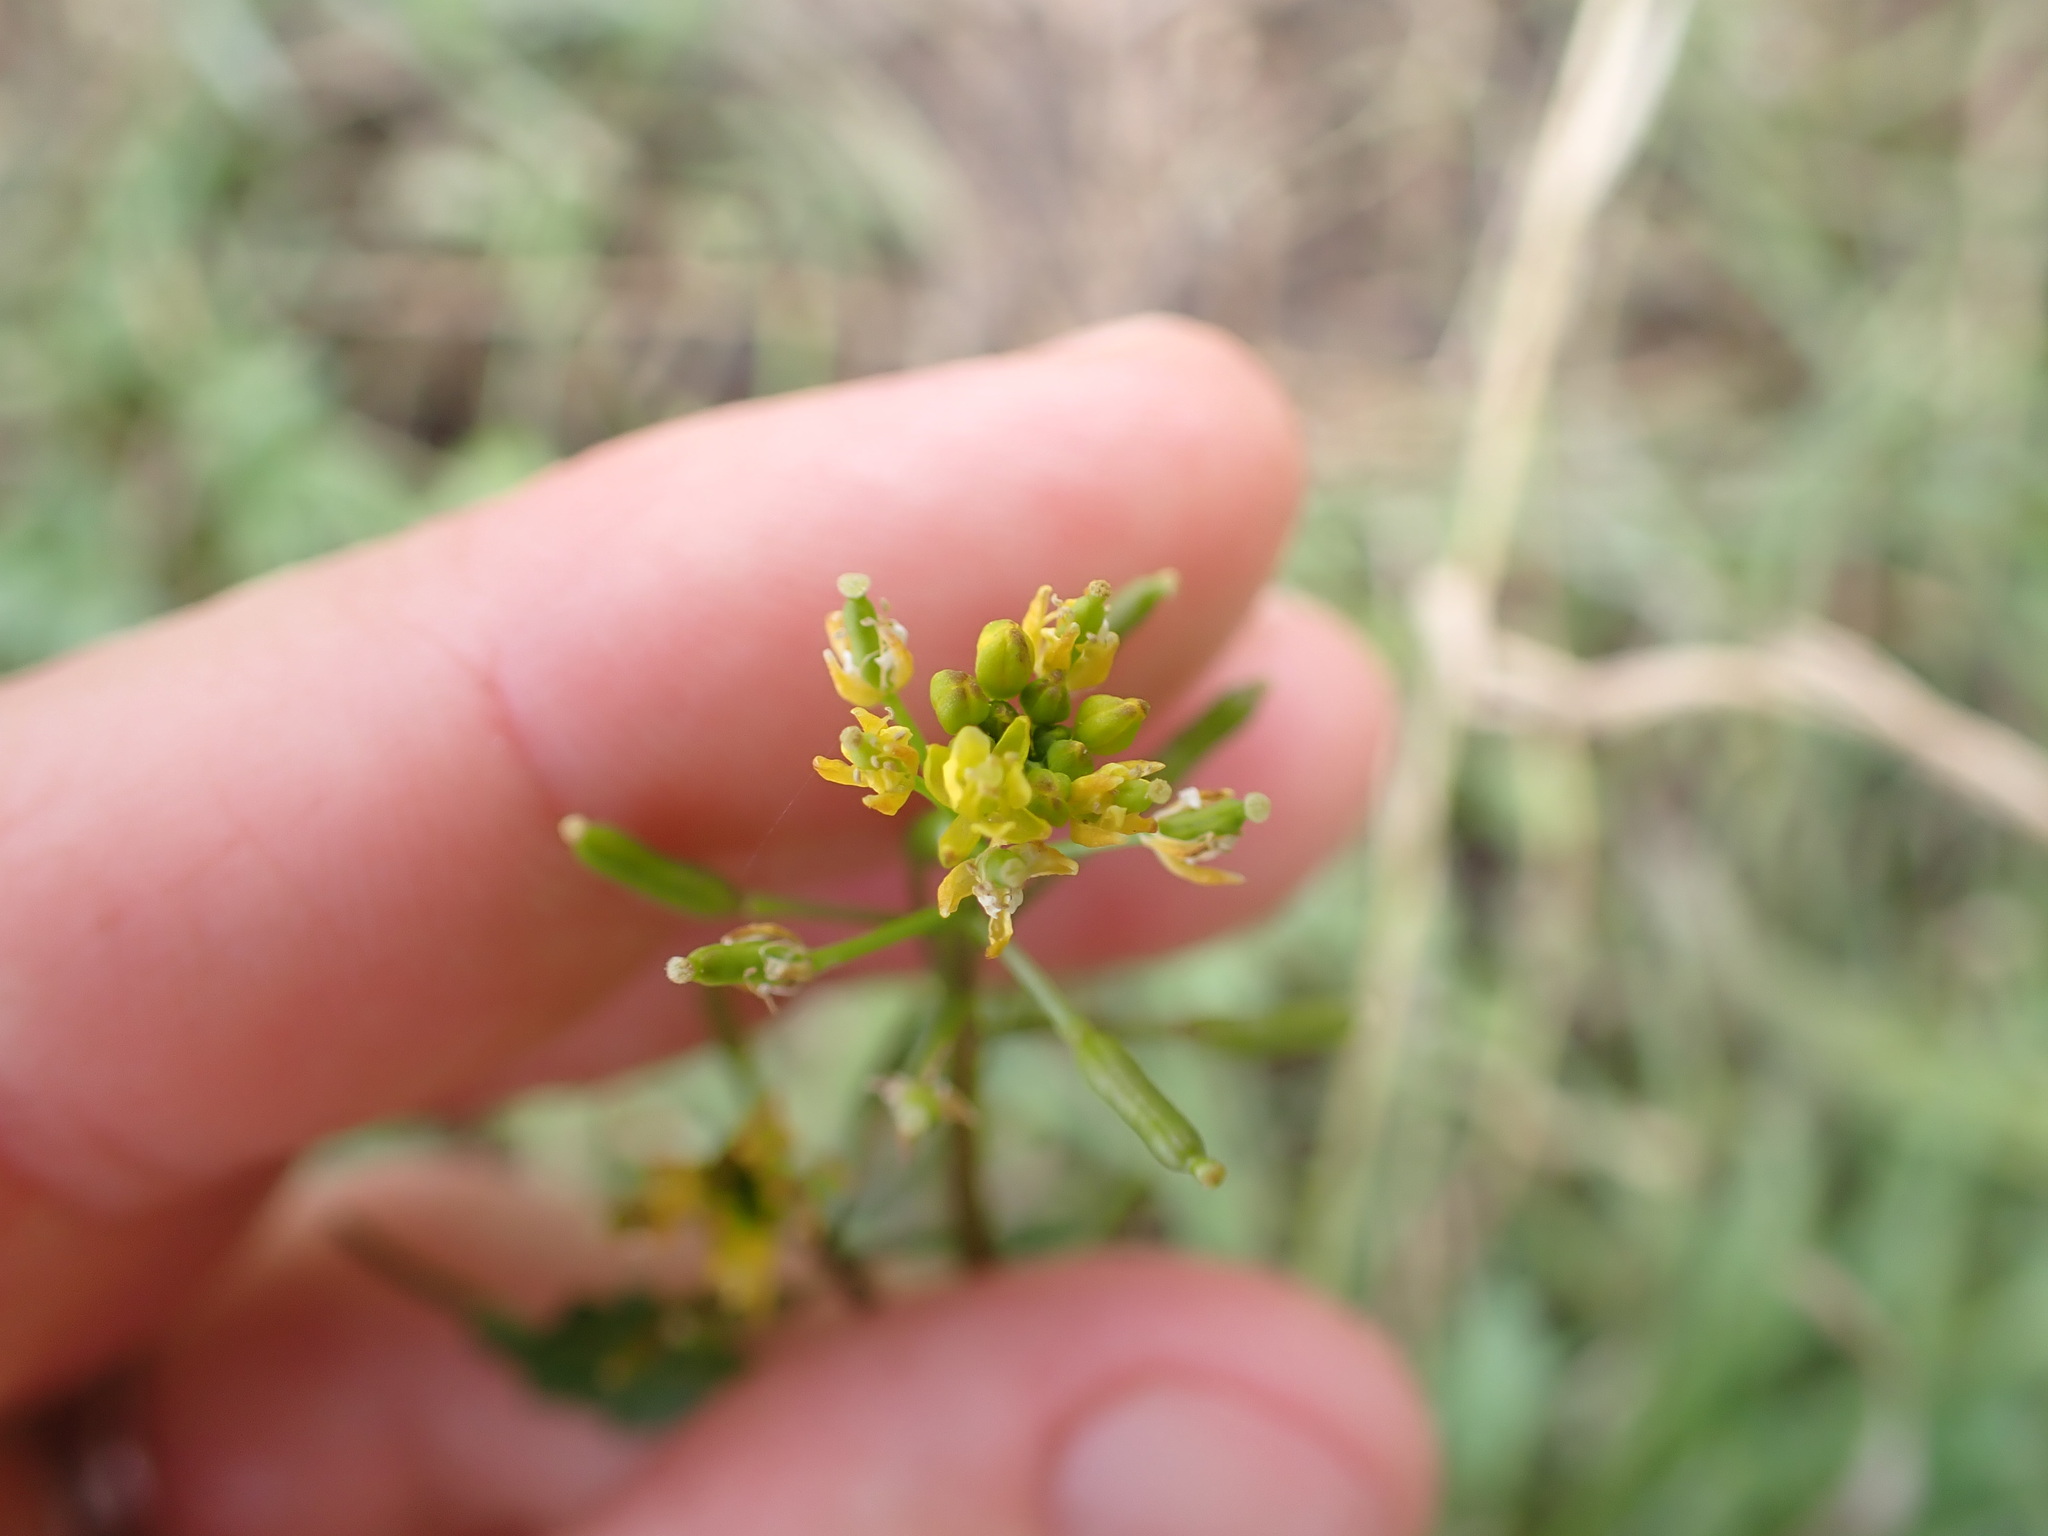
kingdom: Plantae
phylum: Tracheophyta
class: Magnoliopsida
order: Brassicales
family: Brassicaceae
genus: Rorippa
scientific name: Rorippa palustris
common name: Marsh yellow-cress
